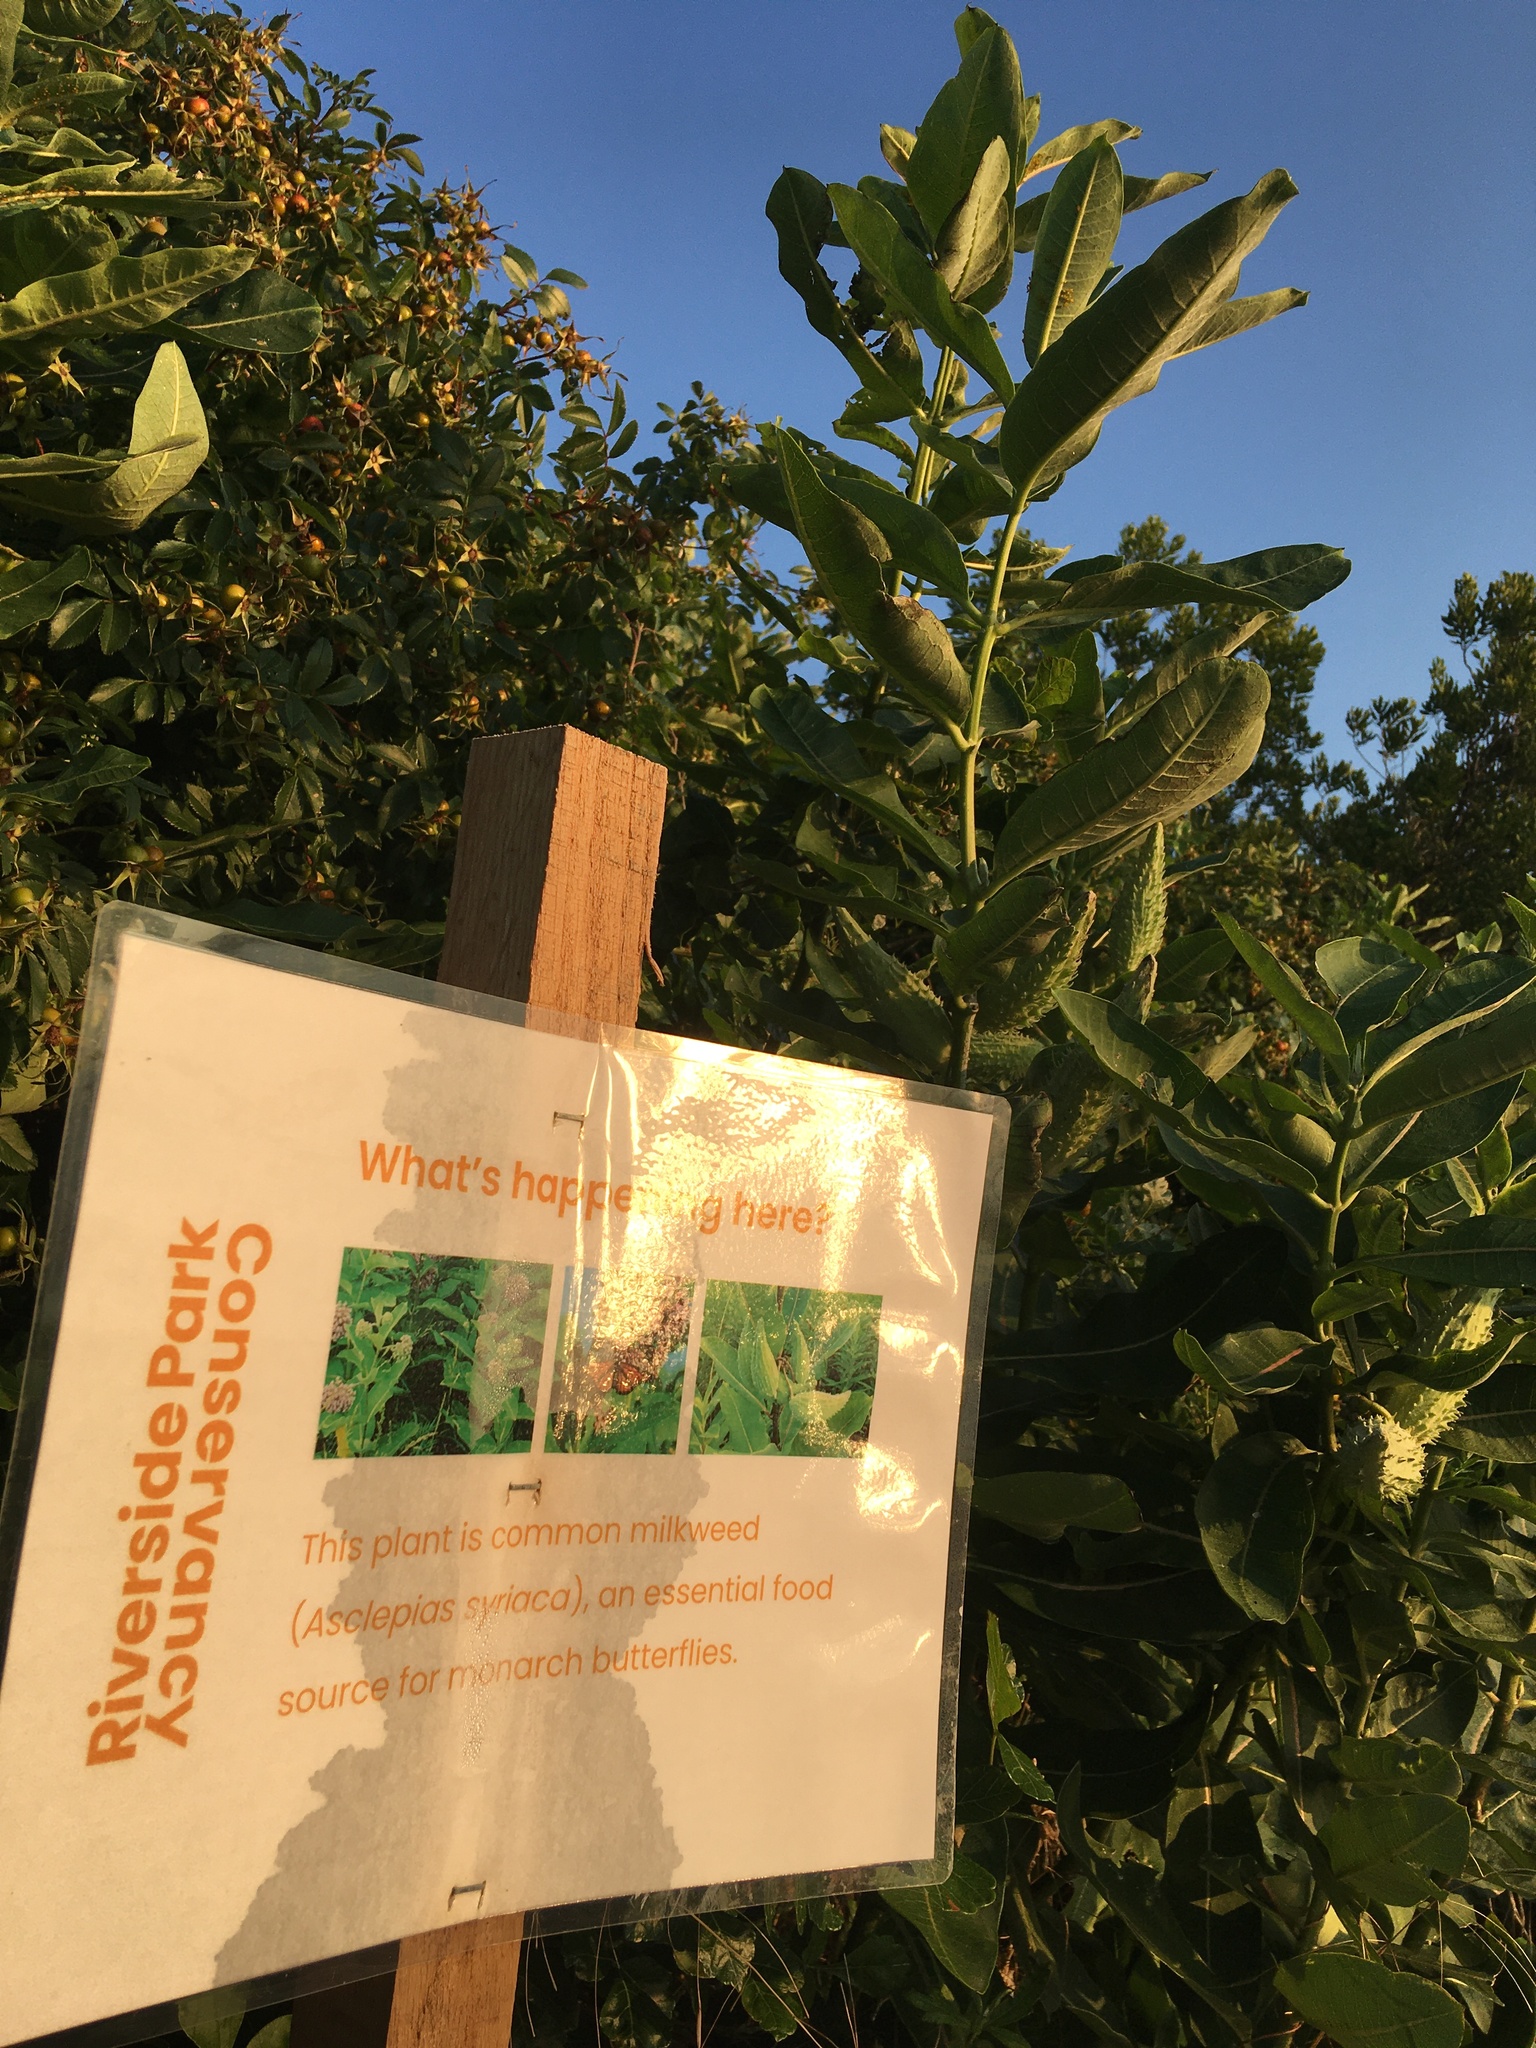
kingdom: Plantae
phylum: Tracheophyta
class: Magnoliopsida
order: Gentianales
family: Apocynaceae
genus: Asclepias
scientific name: Asclepias syriaca
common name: Common milkweed
